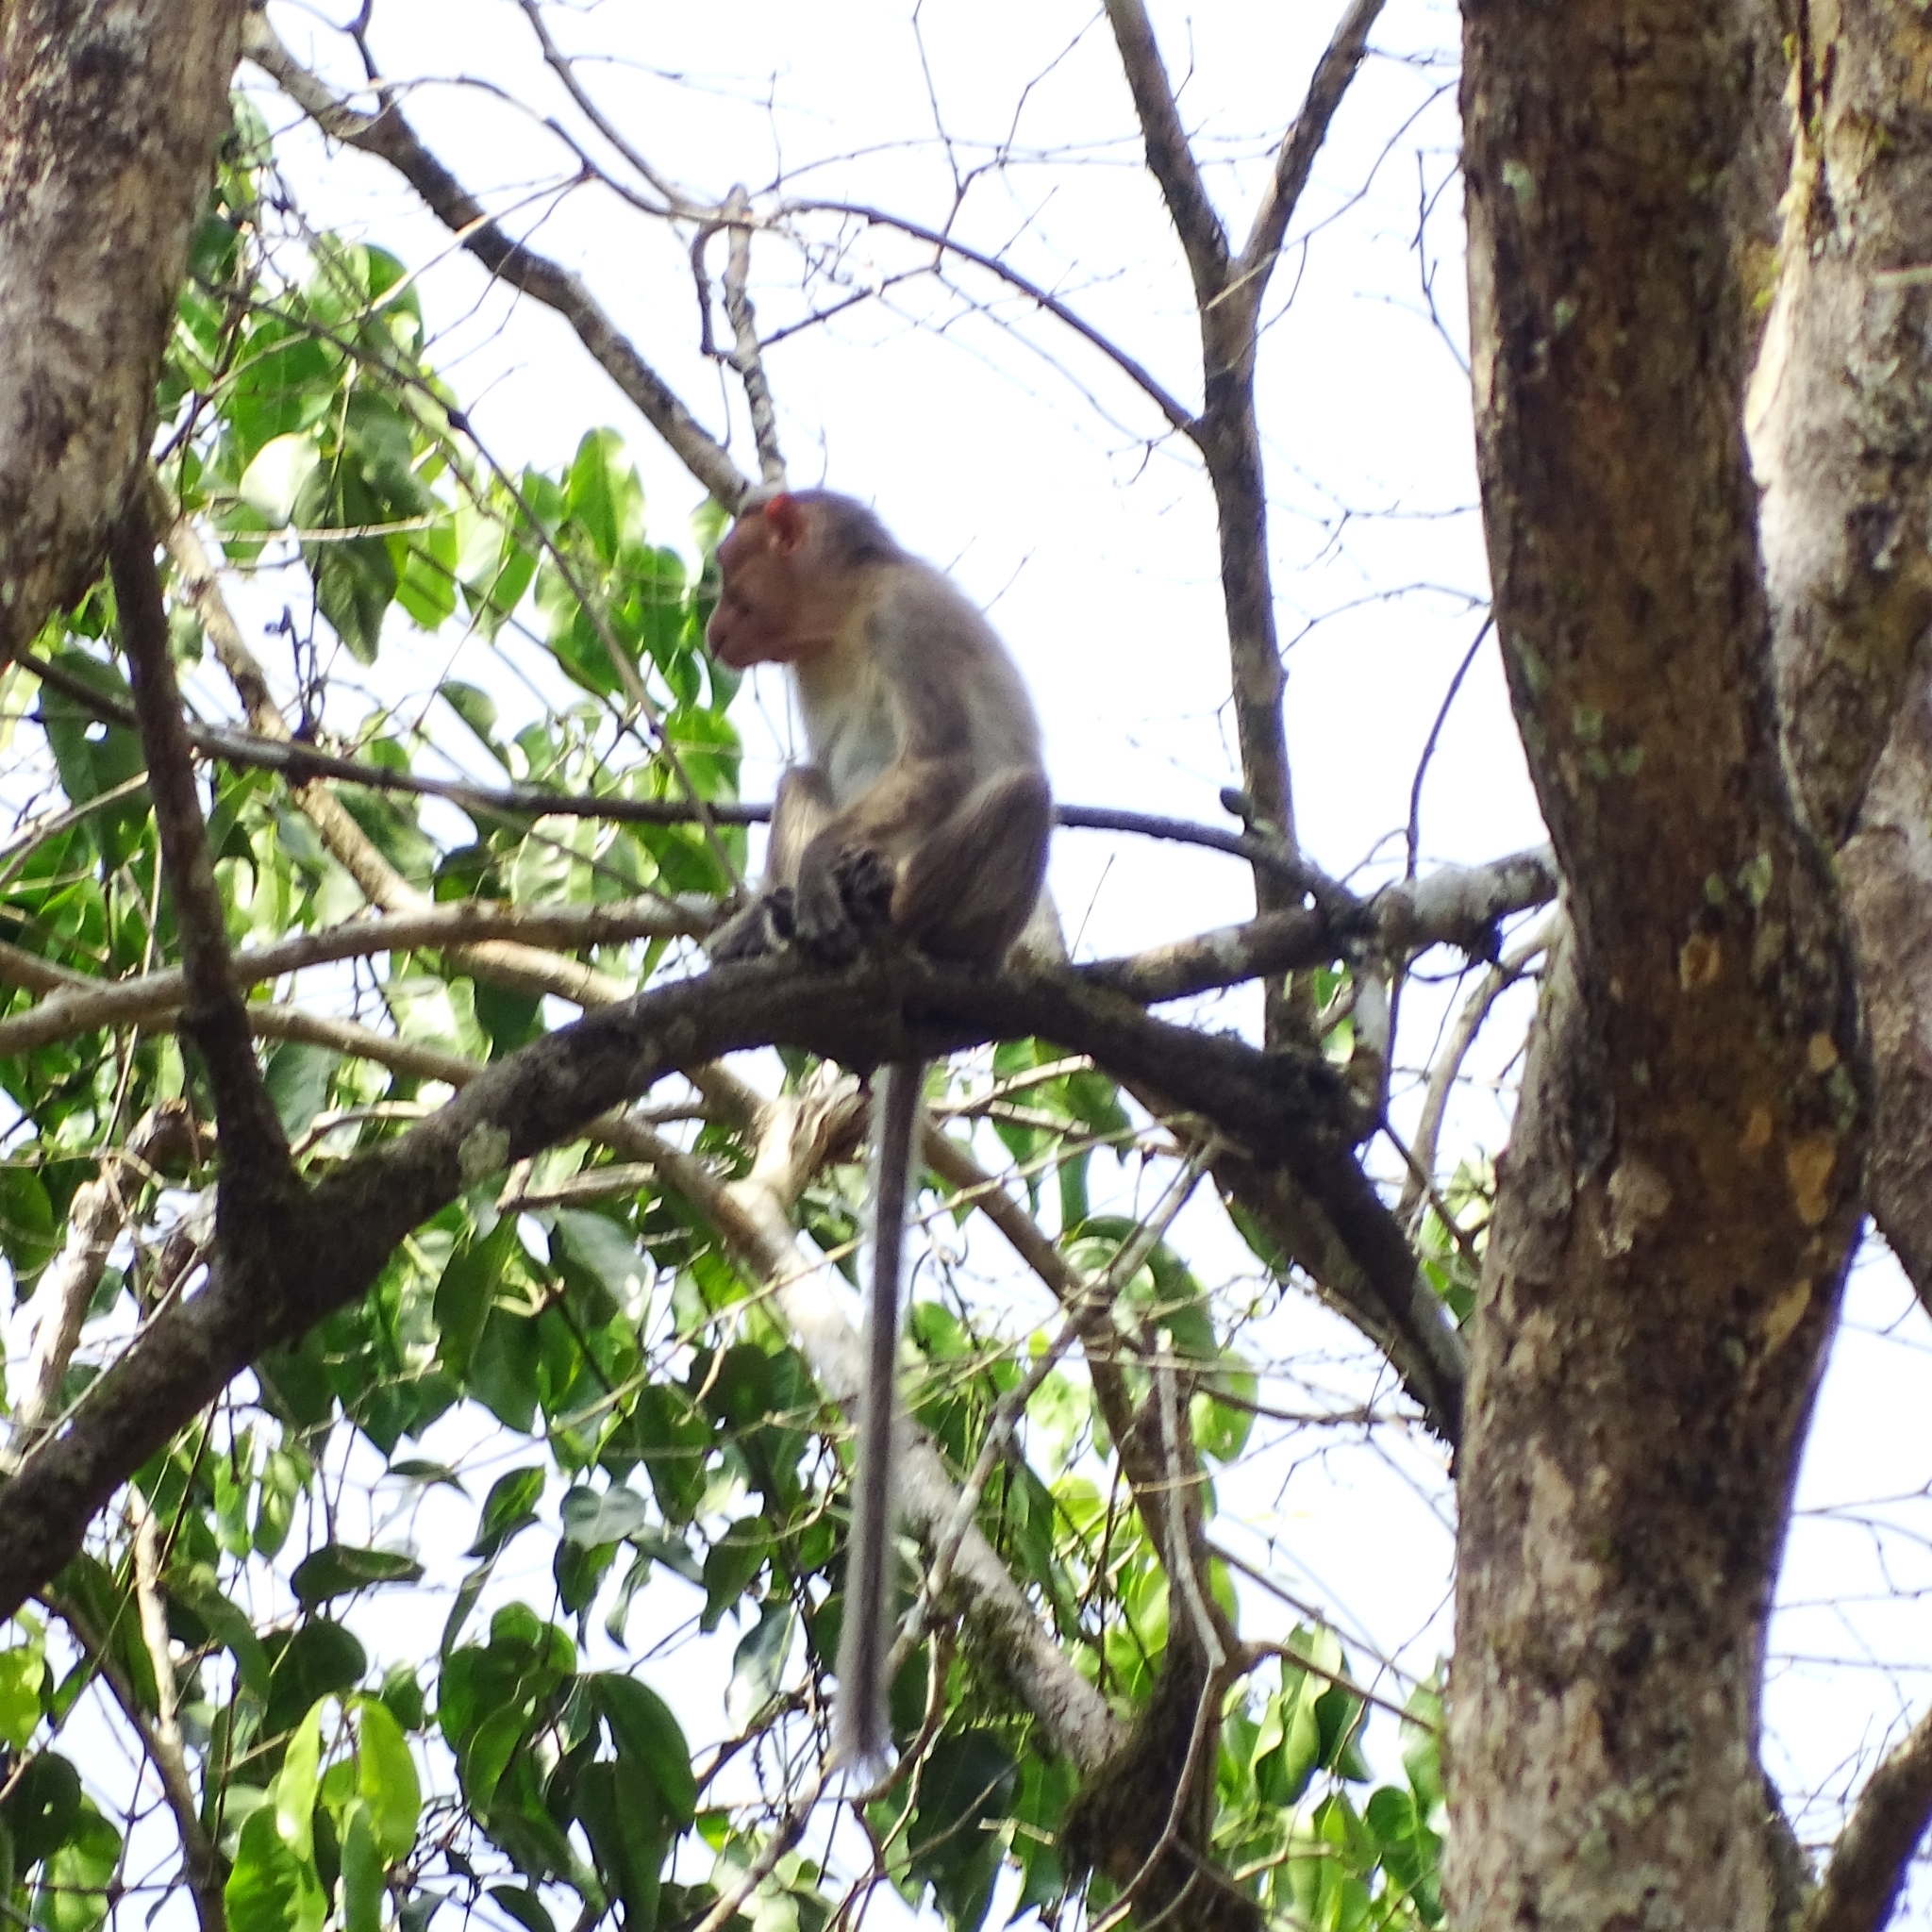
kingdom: Animalia
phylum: Chordata
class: Mammalia
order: Primates
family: Cercopithecidae
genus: Macaca
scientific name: Macaca radiata
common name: Bonnet macaque
